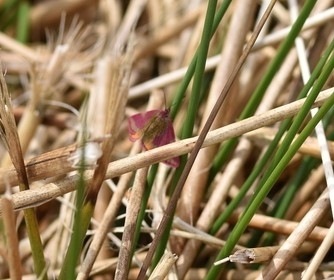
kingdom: Animalia
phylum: Arthropoda
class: Insecta
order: Lepidoptera
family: Geometridae
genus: Lythria
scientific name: Lythria cruentaria
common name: Purple-barred yellow
